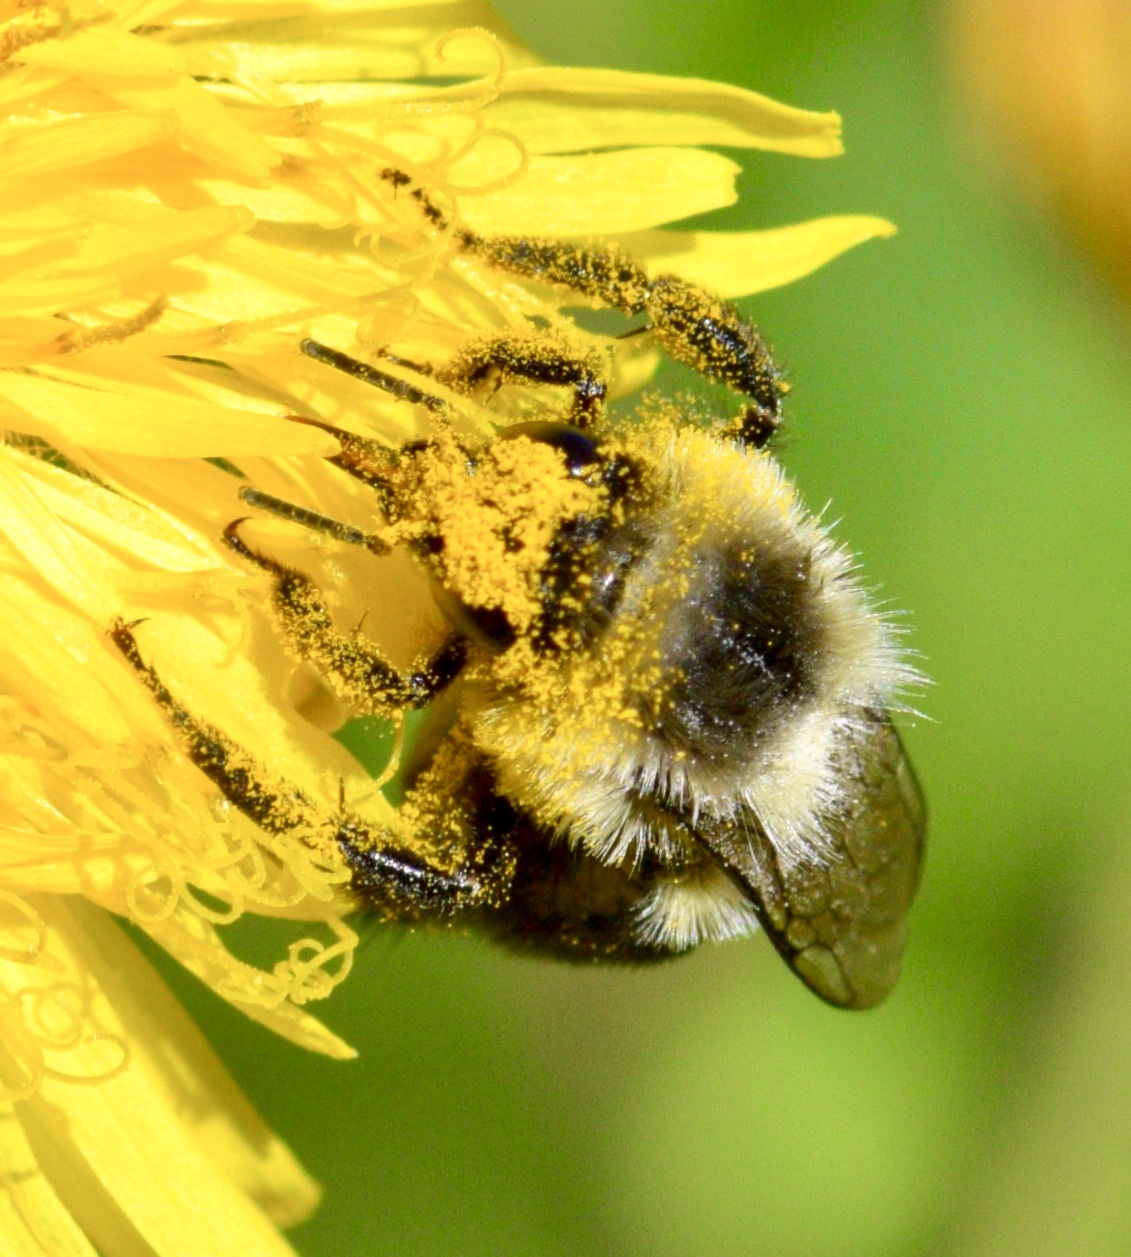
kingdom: Animalia
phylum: Arthropoda
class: Insecta
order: Hymenoptera
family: Apidae
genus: Bombus
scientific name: Bombus impatiens
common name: Common eastern bumble bee
